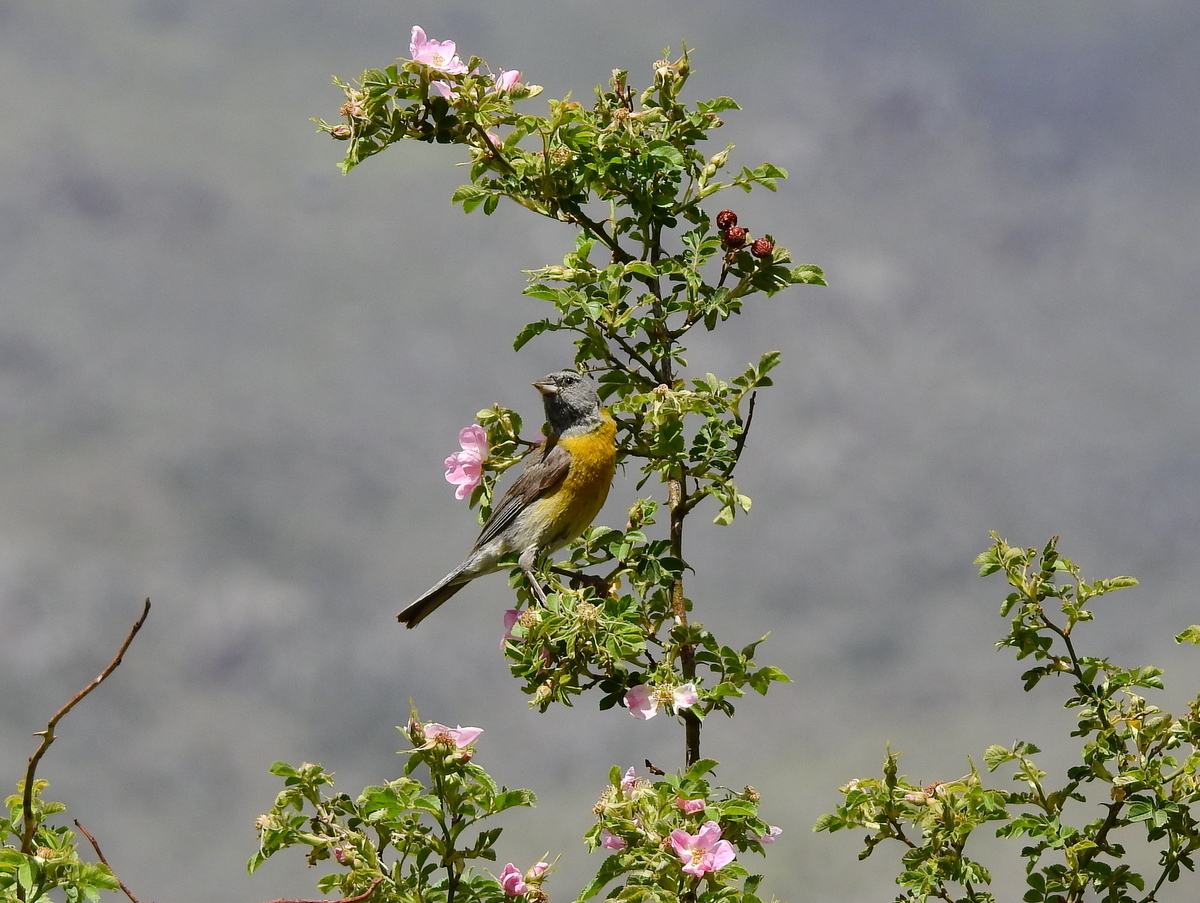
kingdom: Animalia
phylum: Chordata
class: Aves
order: Passeriformes
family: Thraupidae
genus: Phrygilus
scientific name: Phrygilus gayi
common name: Grey-hooded sierra finch
